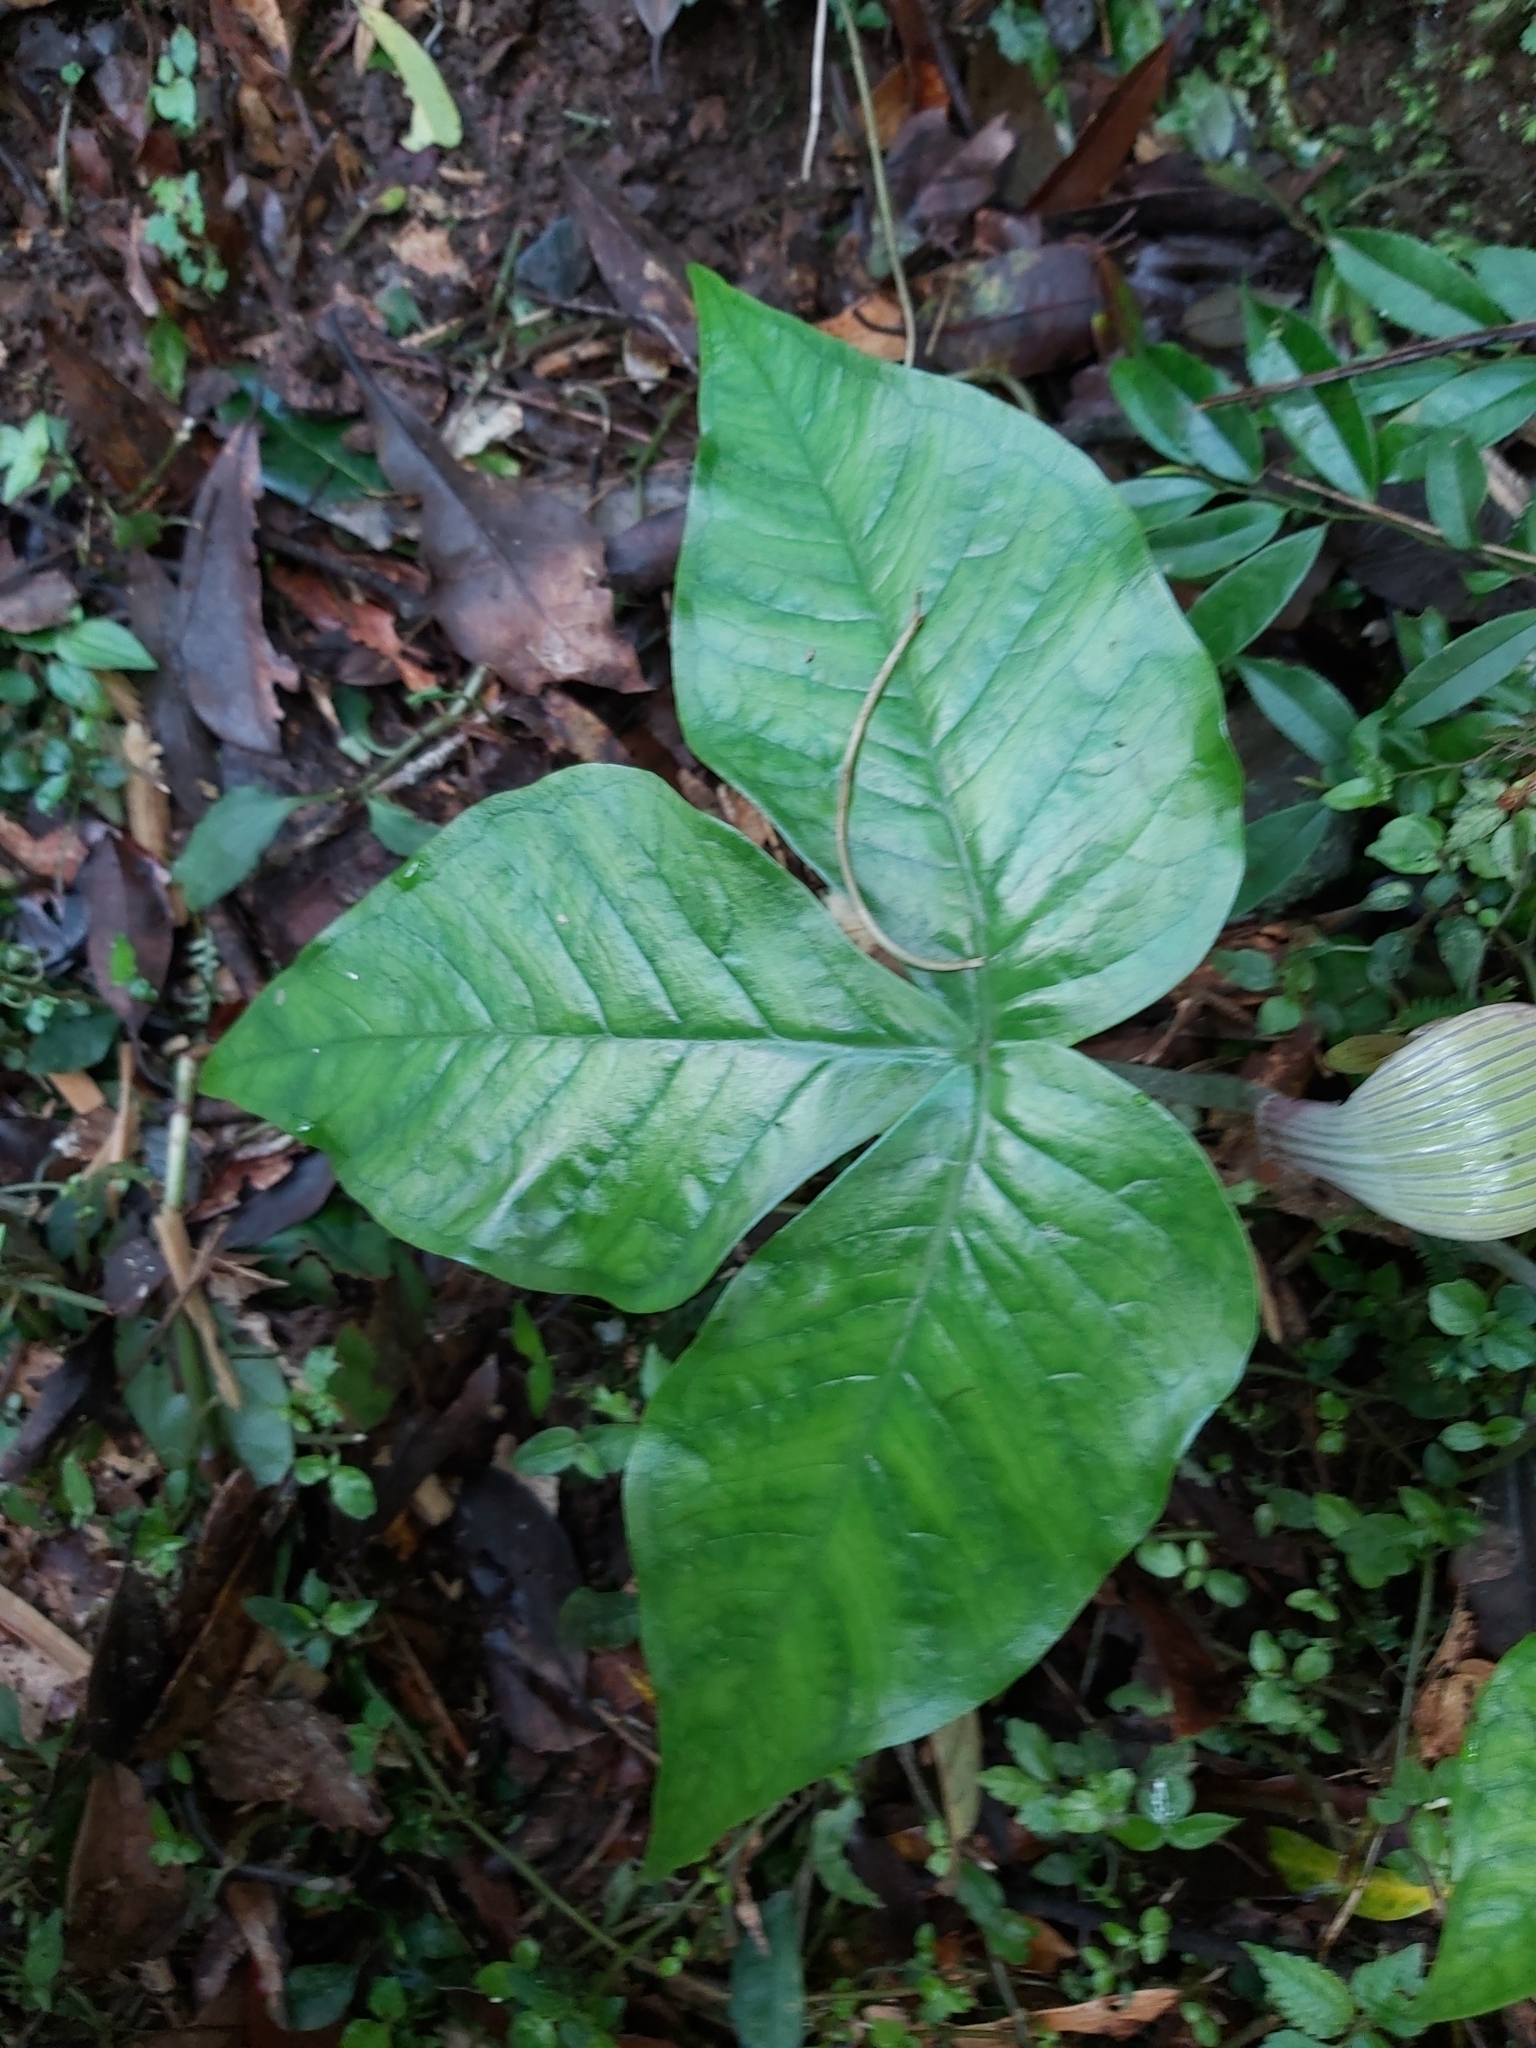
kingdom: Plantae
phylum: Tracheophyta
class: Liliopsida
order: Alismatales
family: Araceae
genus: Arisaema
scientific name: Arisaema ringens
